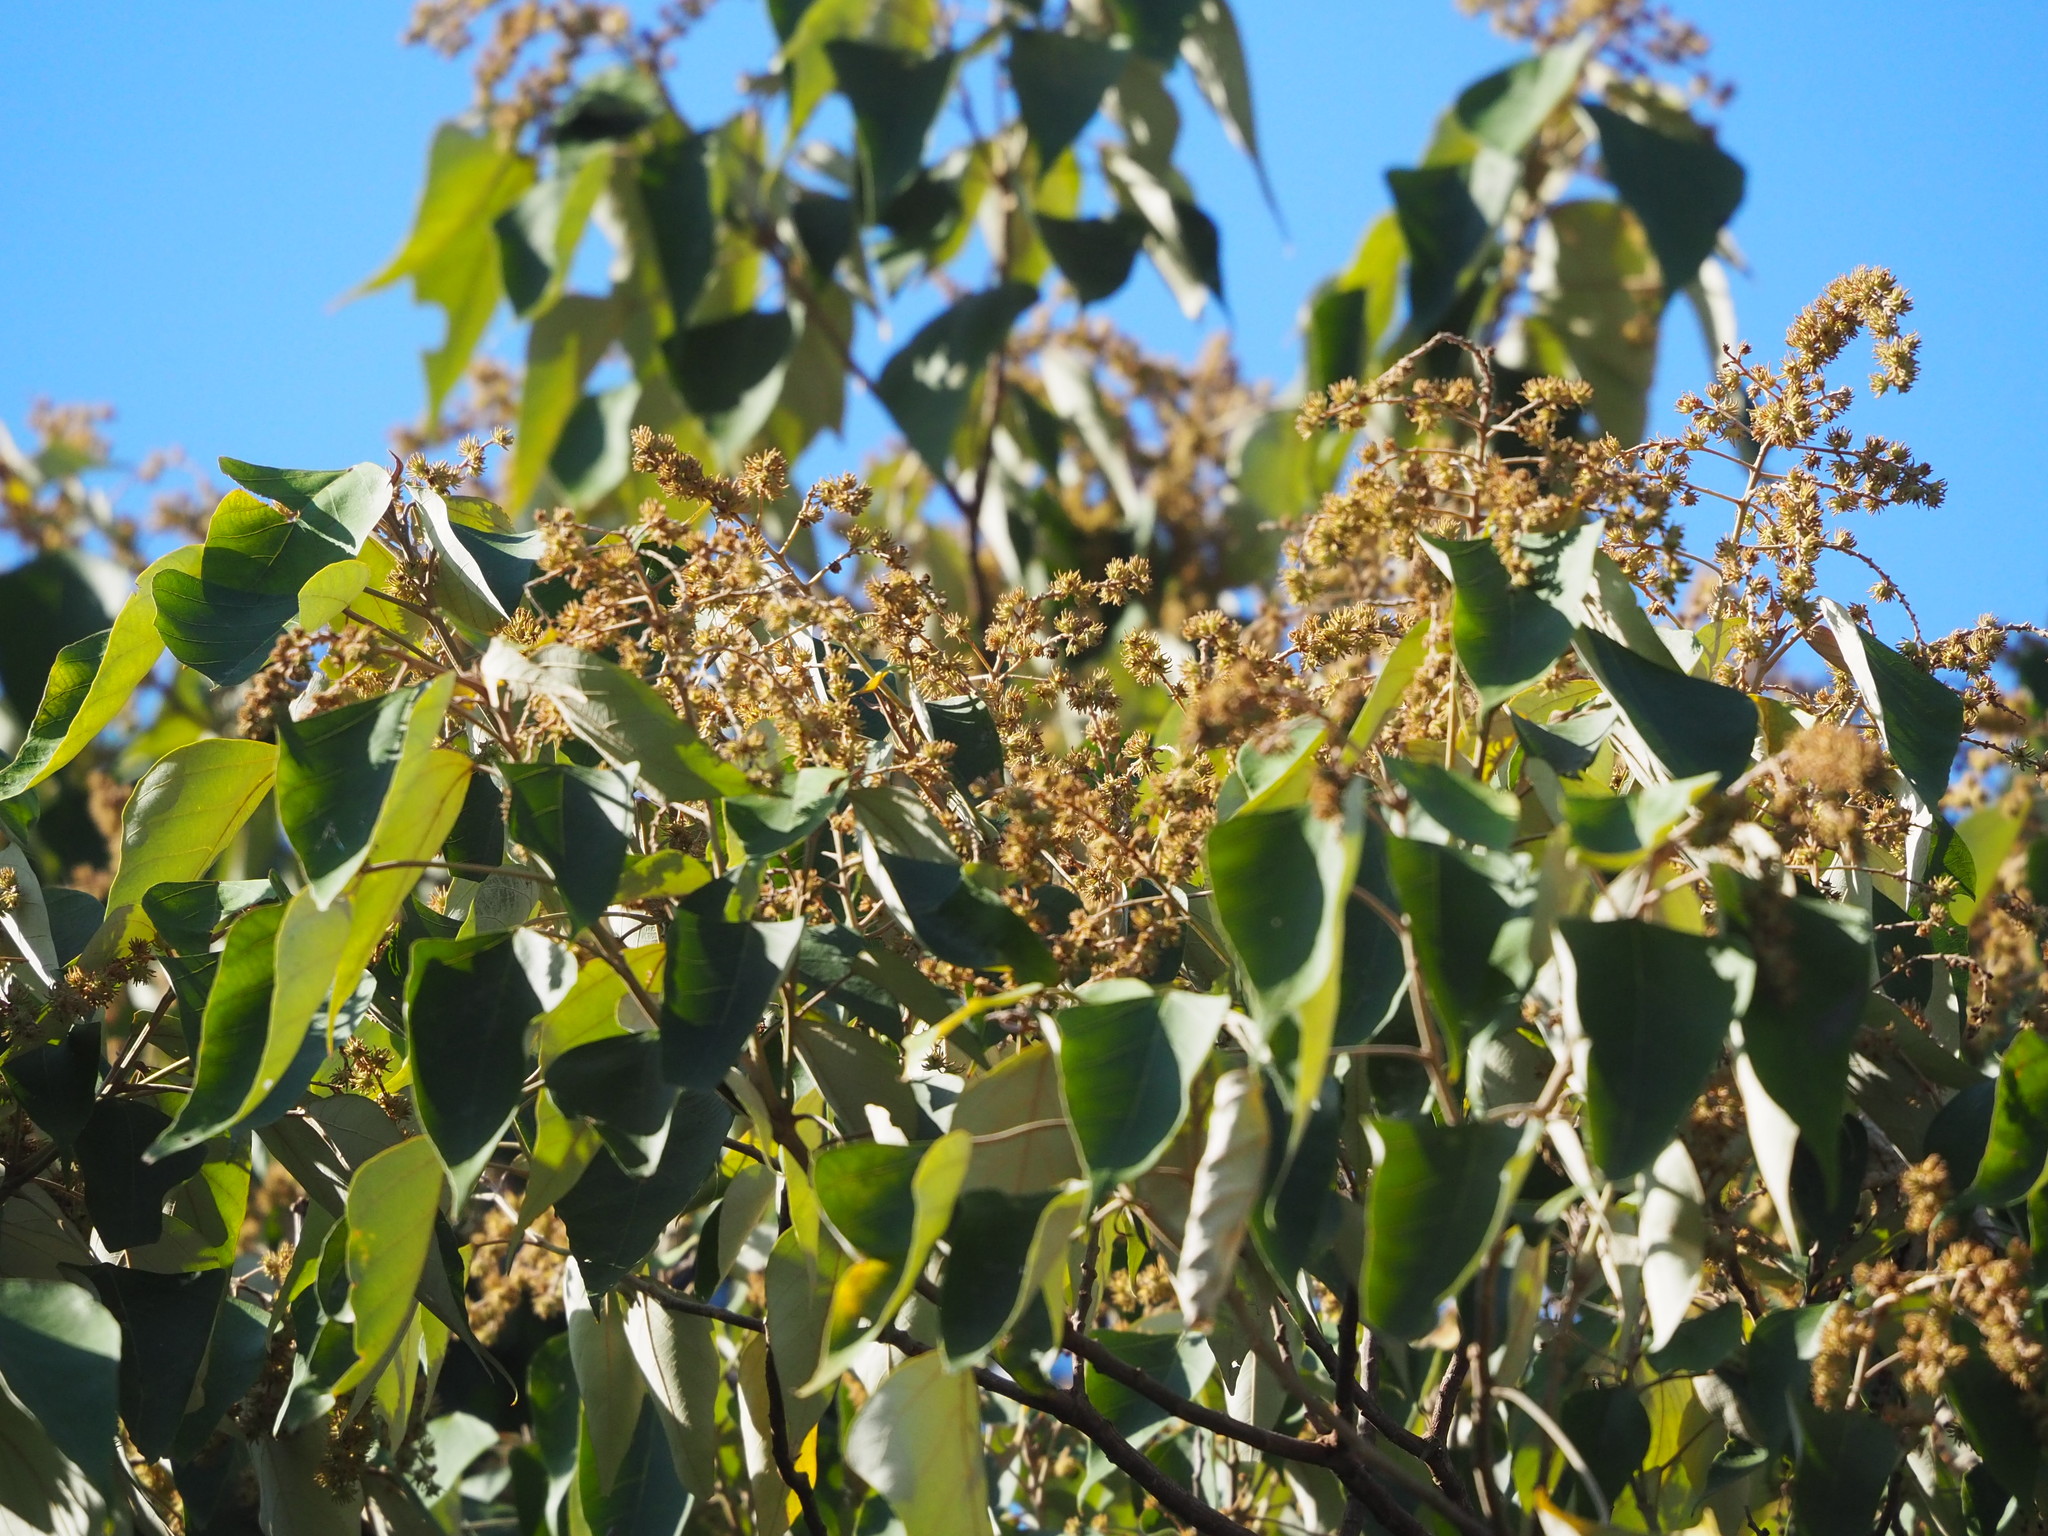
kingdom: Plantae
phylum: Tracheophyta
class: Magnoliopsida
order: Malpighiales
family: Euphorbiaceae
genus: Mallotus
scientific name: Mallotus paniculatus
